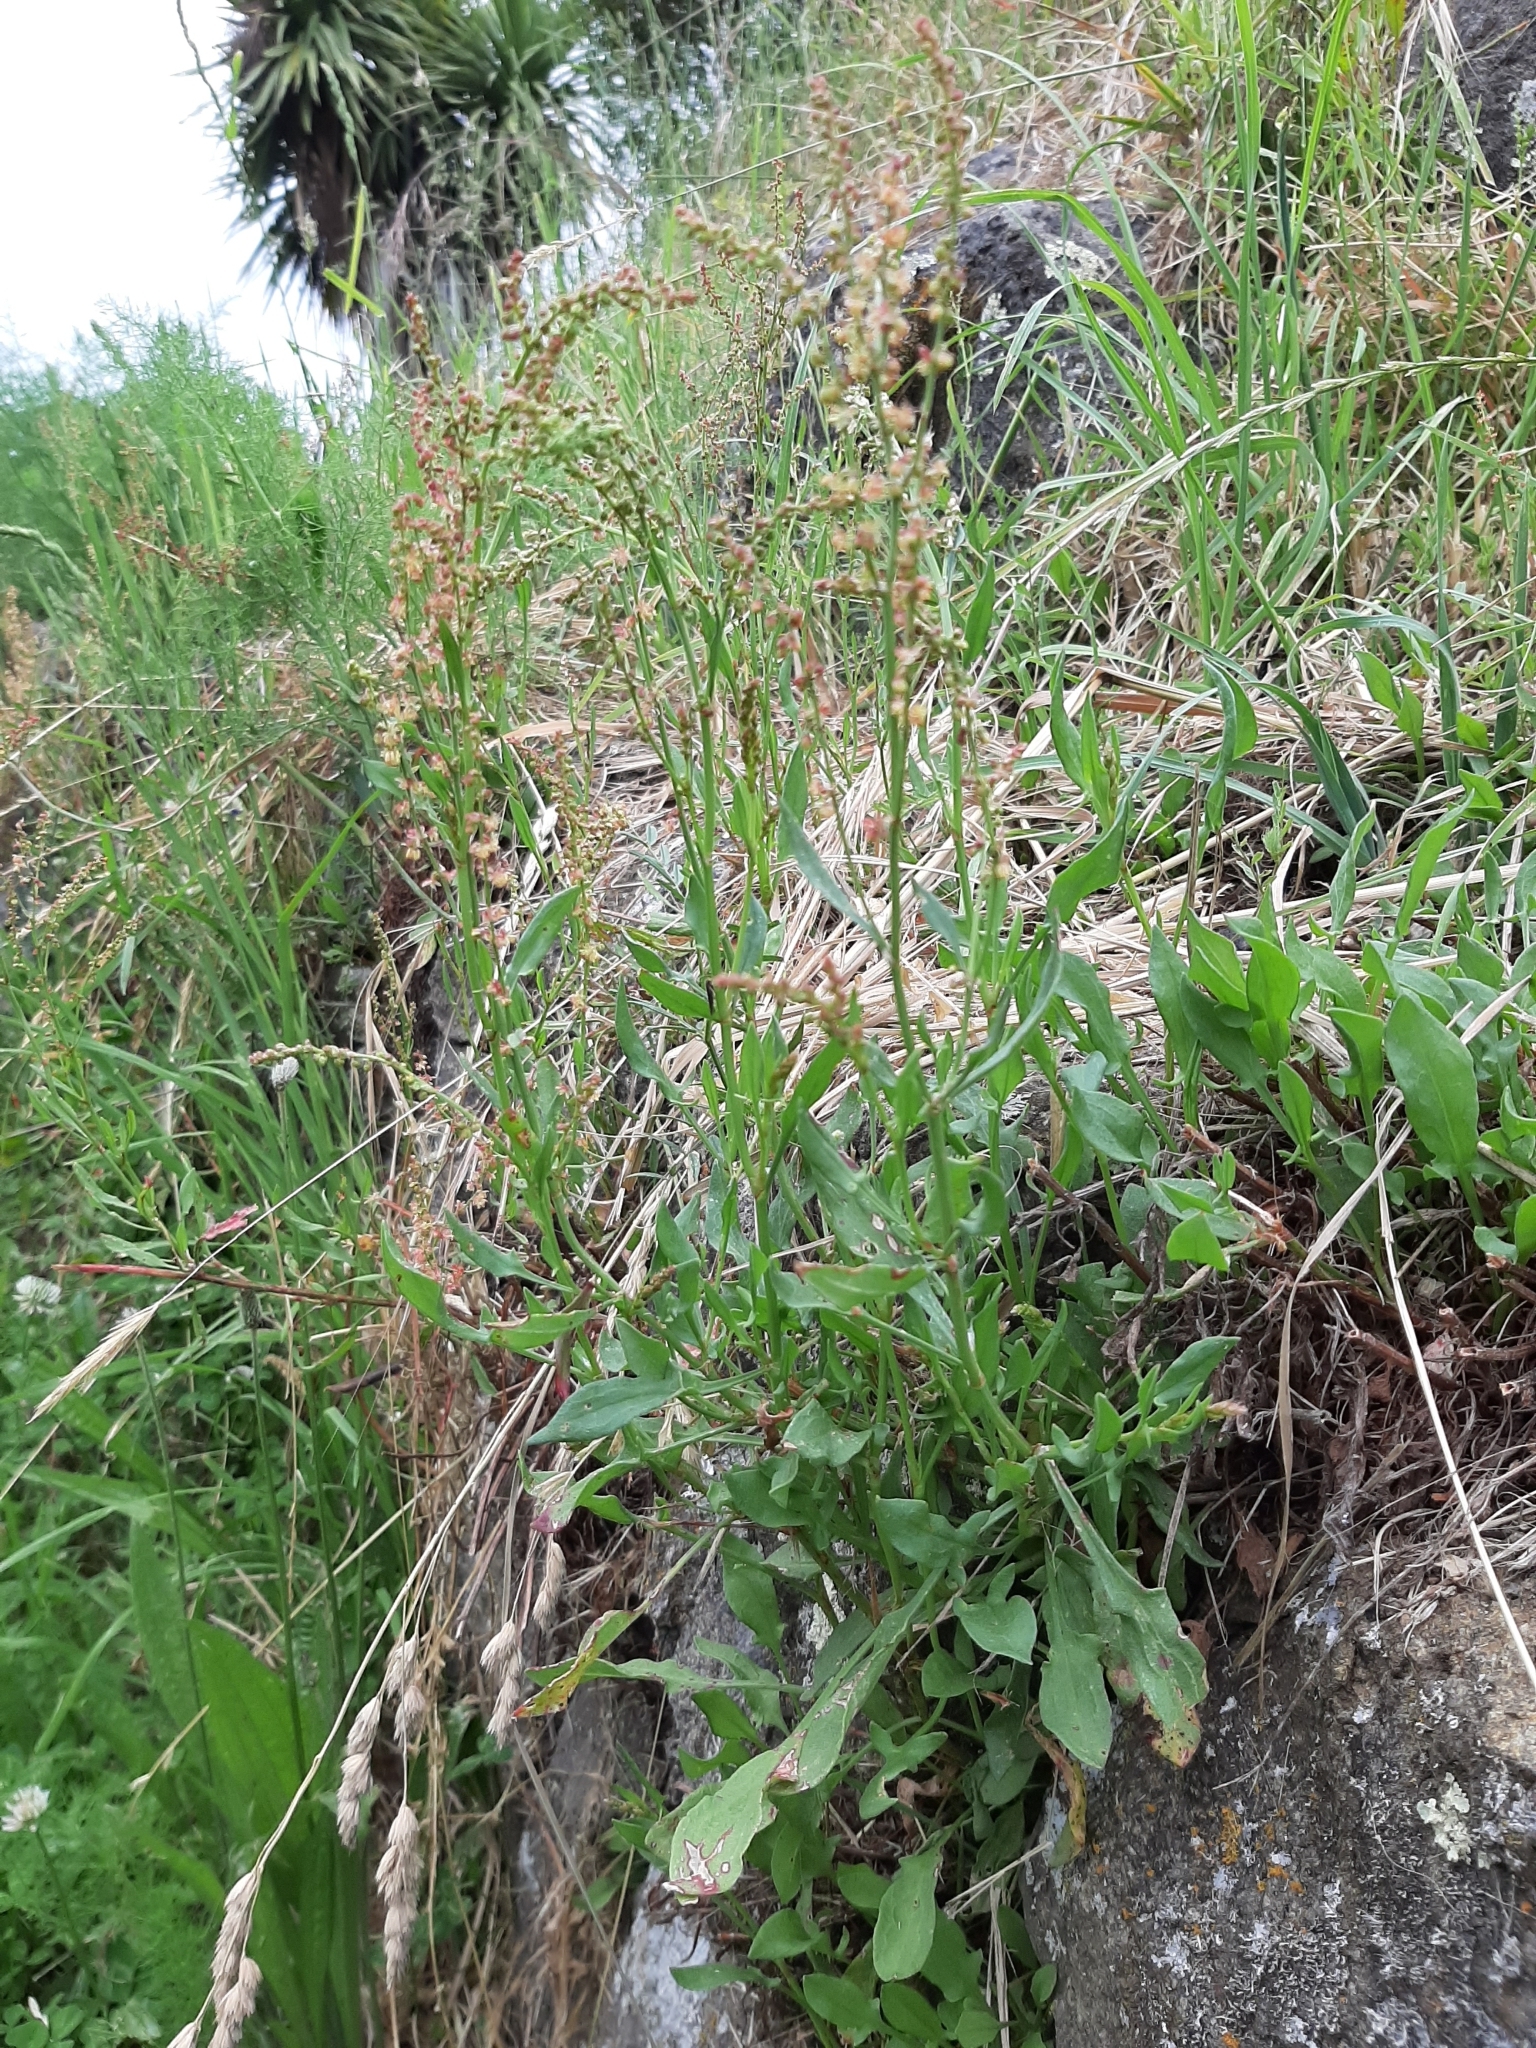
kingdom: Plantae
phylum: Tracheophyta
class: Magnoliopsida
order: Caryophyllales
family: Polygonaceae
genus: Rumex
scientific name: Rumex acetosella
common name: Common sheep sorrel
